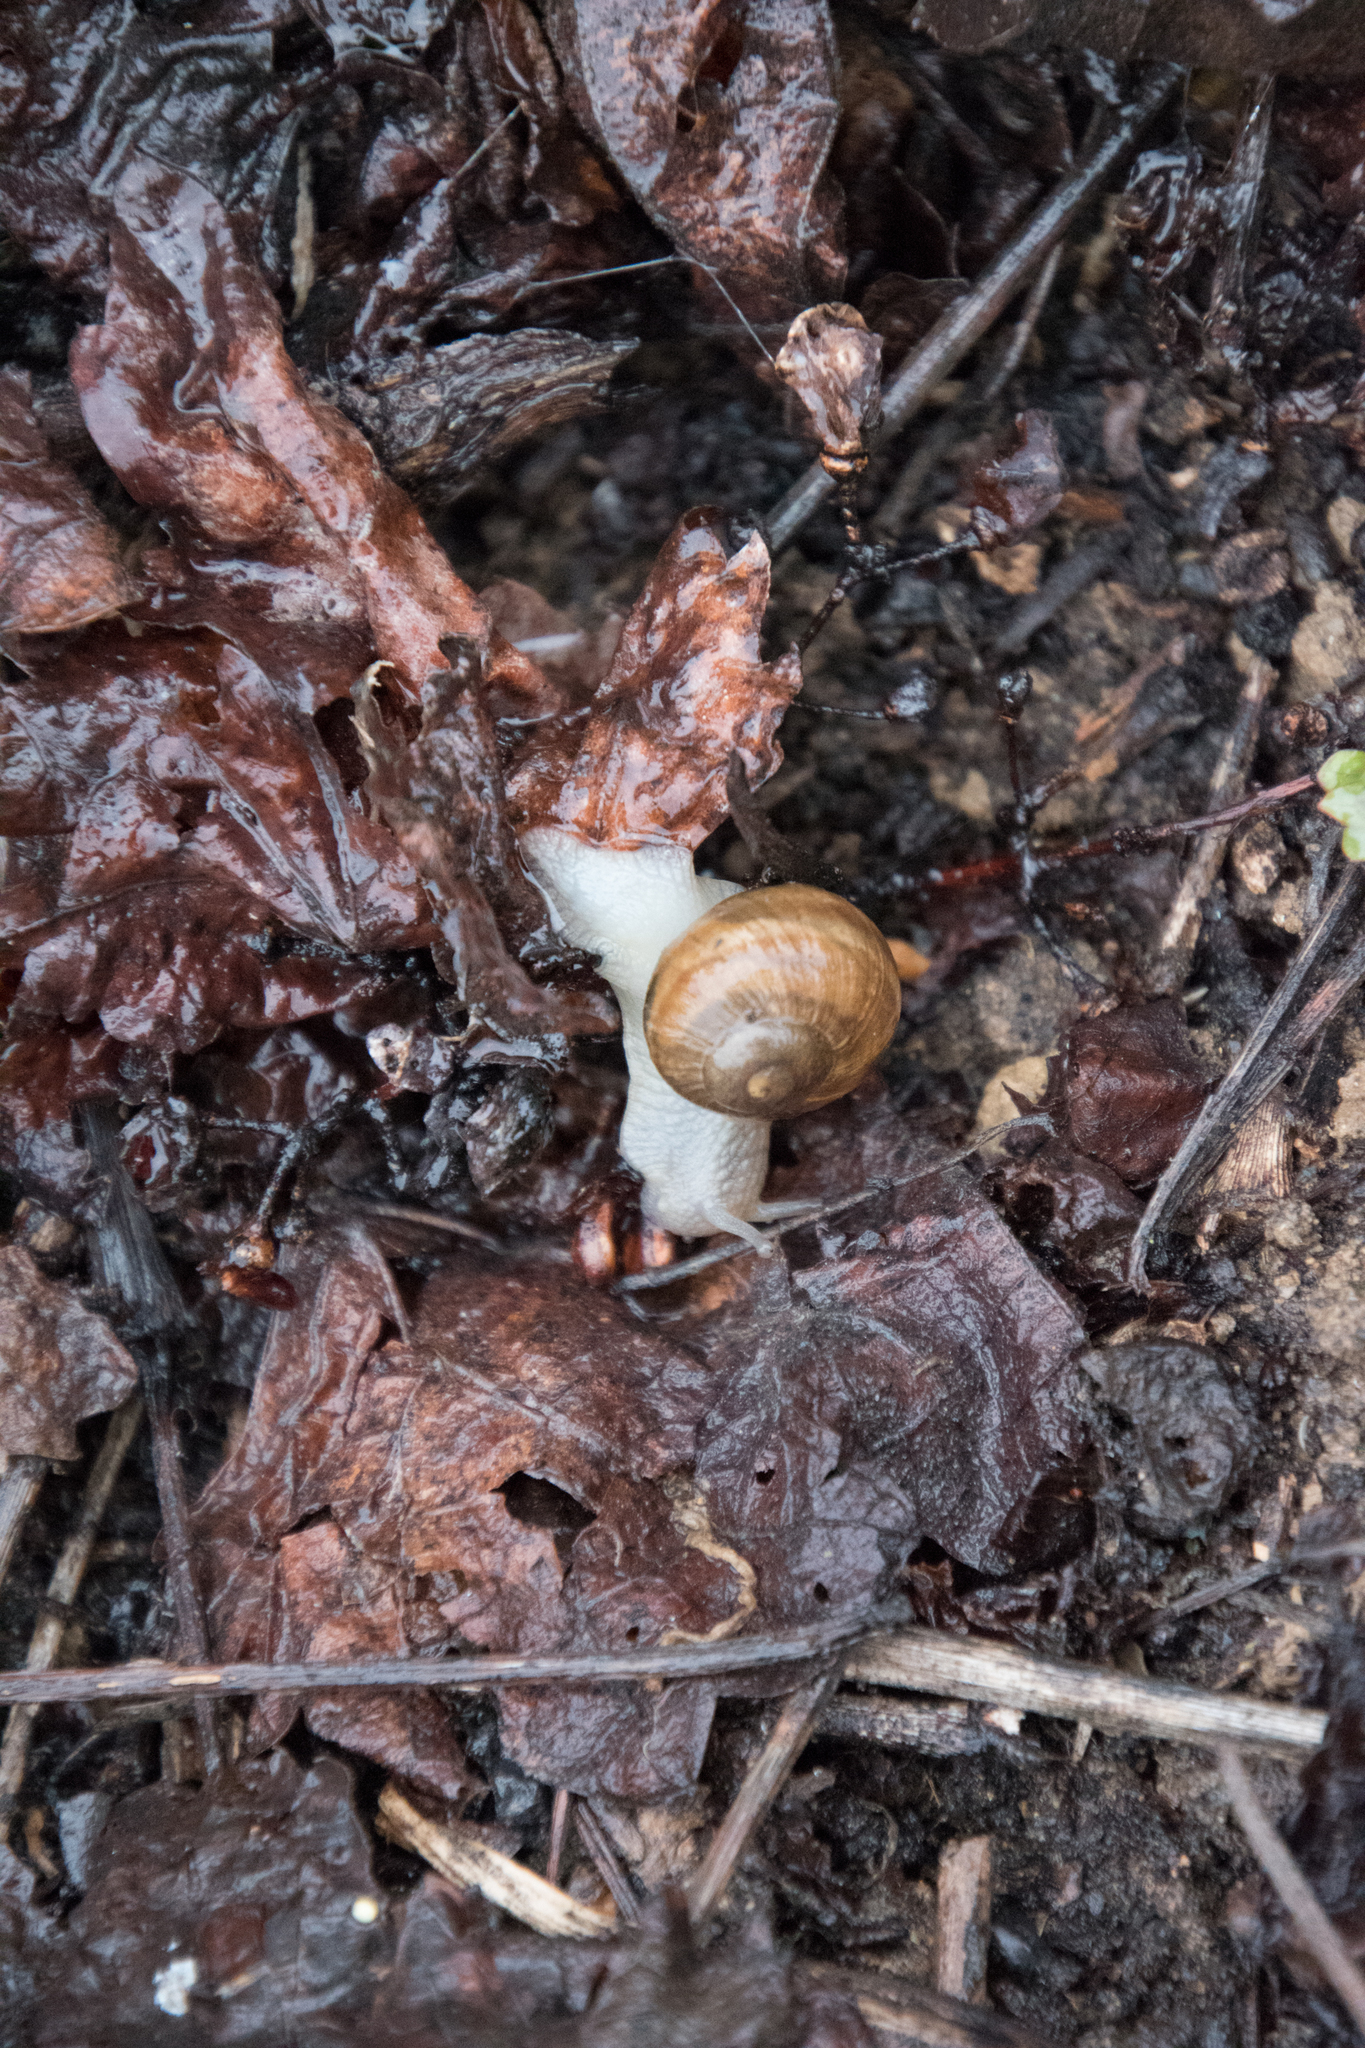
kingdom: Animalia
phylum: Mollusca
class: Gastropoda
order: Stylommatophora
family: Helicidae
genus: Helix
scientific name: Helix pomatia
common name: Roman snail
